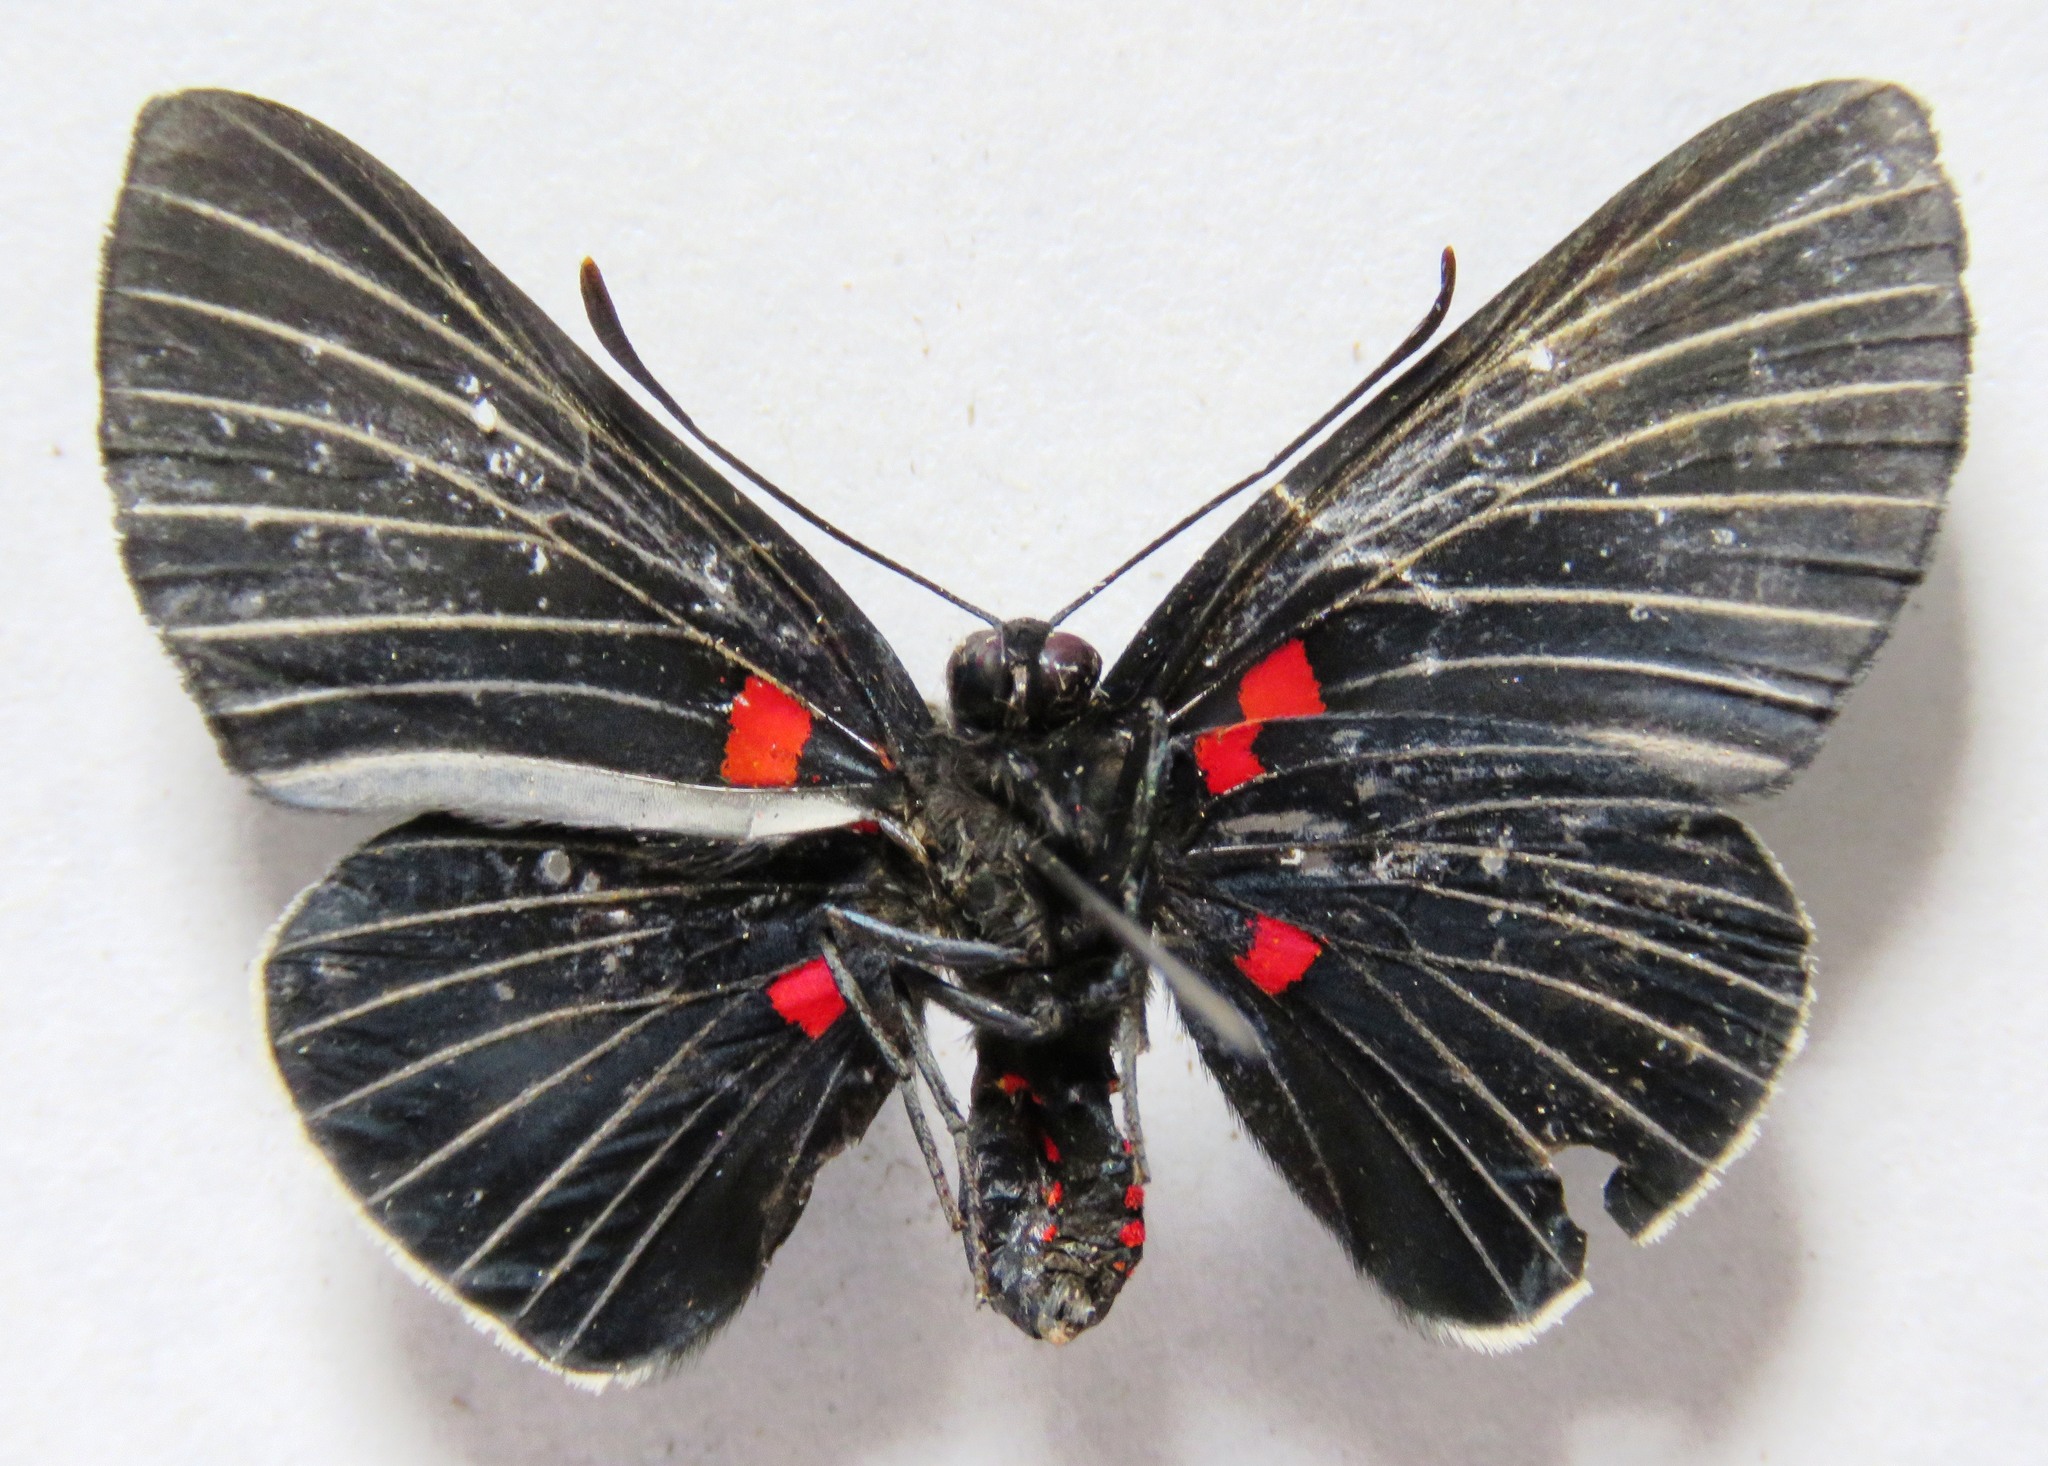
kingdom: Animalia
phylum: Arthropoda
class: Insecta
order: Lepidoptera
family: Lycaenidae
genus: Melanis
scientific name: Melanis pixe
